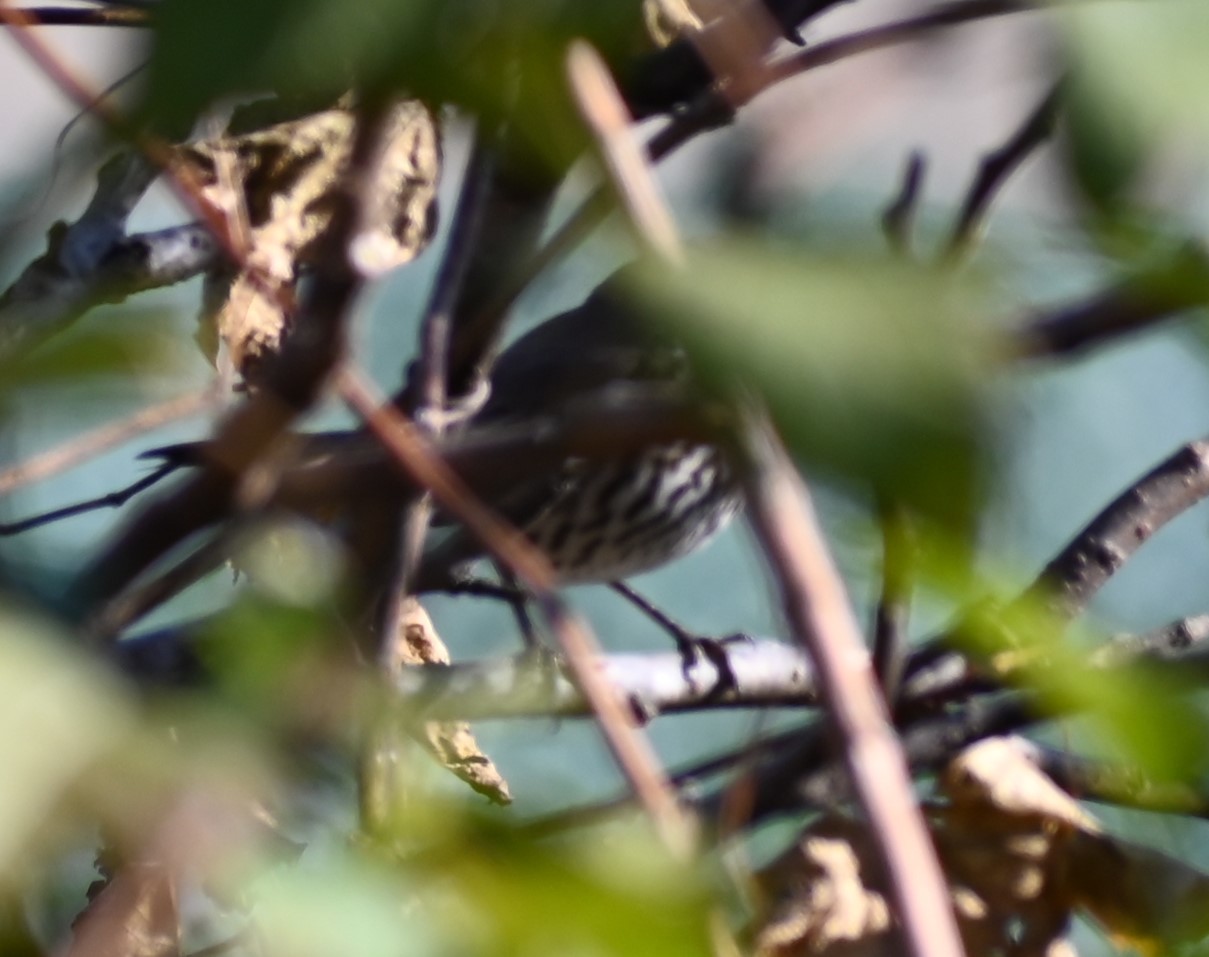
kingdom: Animalia
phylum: Chordata
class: Aves
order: Passeriformes
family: Mimidae
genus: Oreoscoptes
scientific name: Oreoscoptes montanus
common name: Sage thrasher
